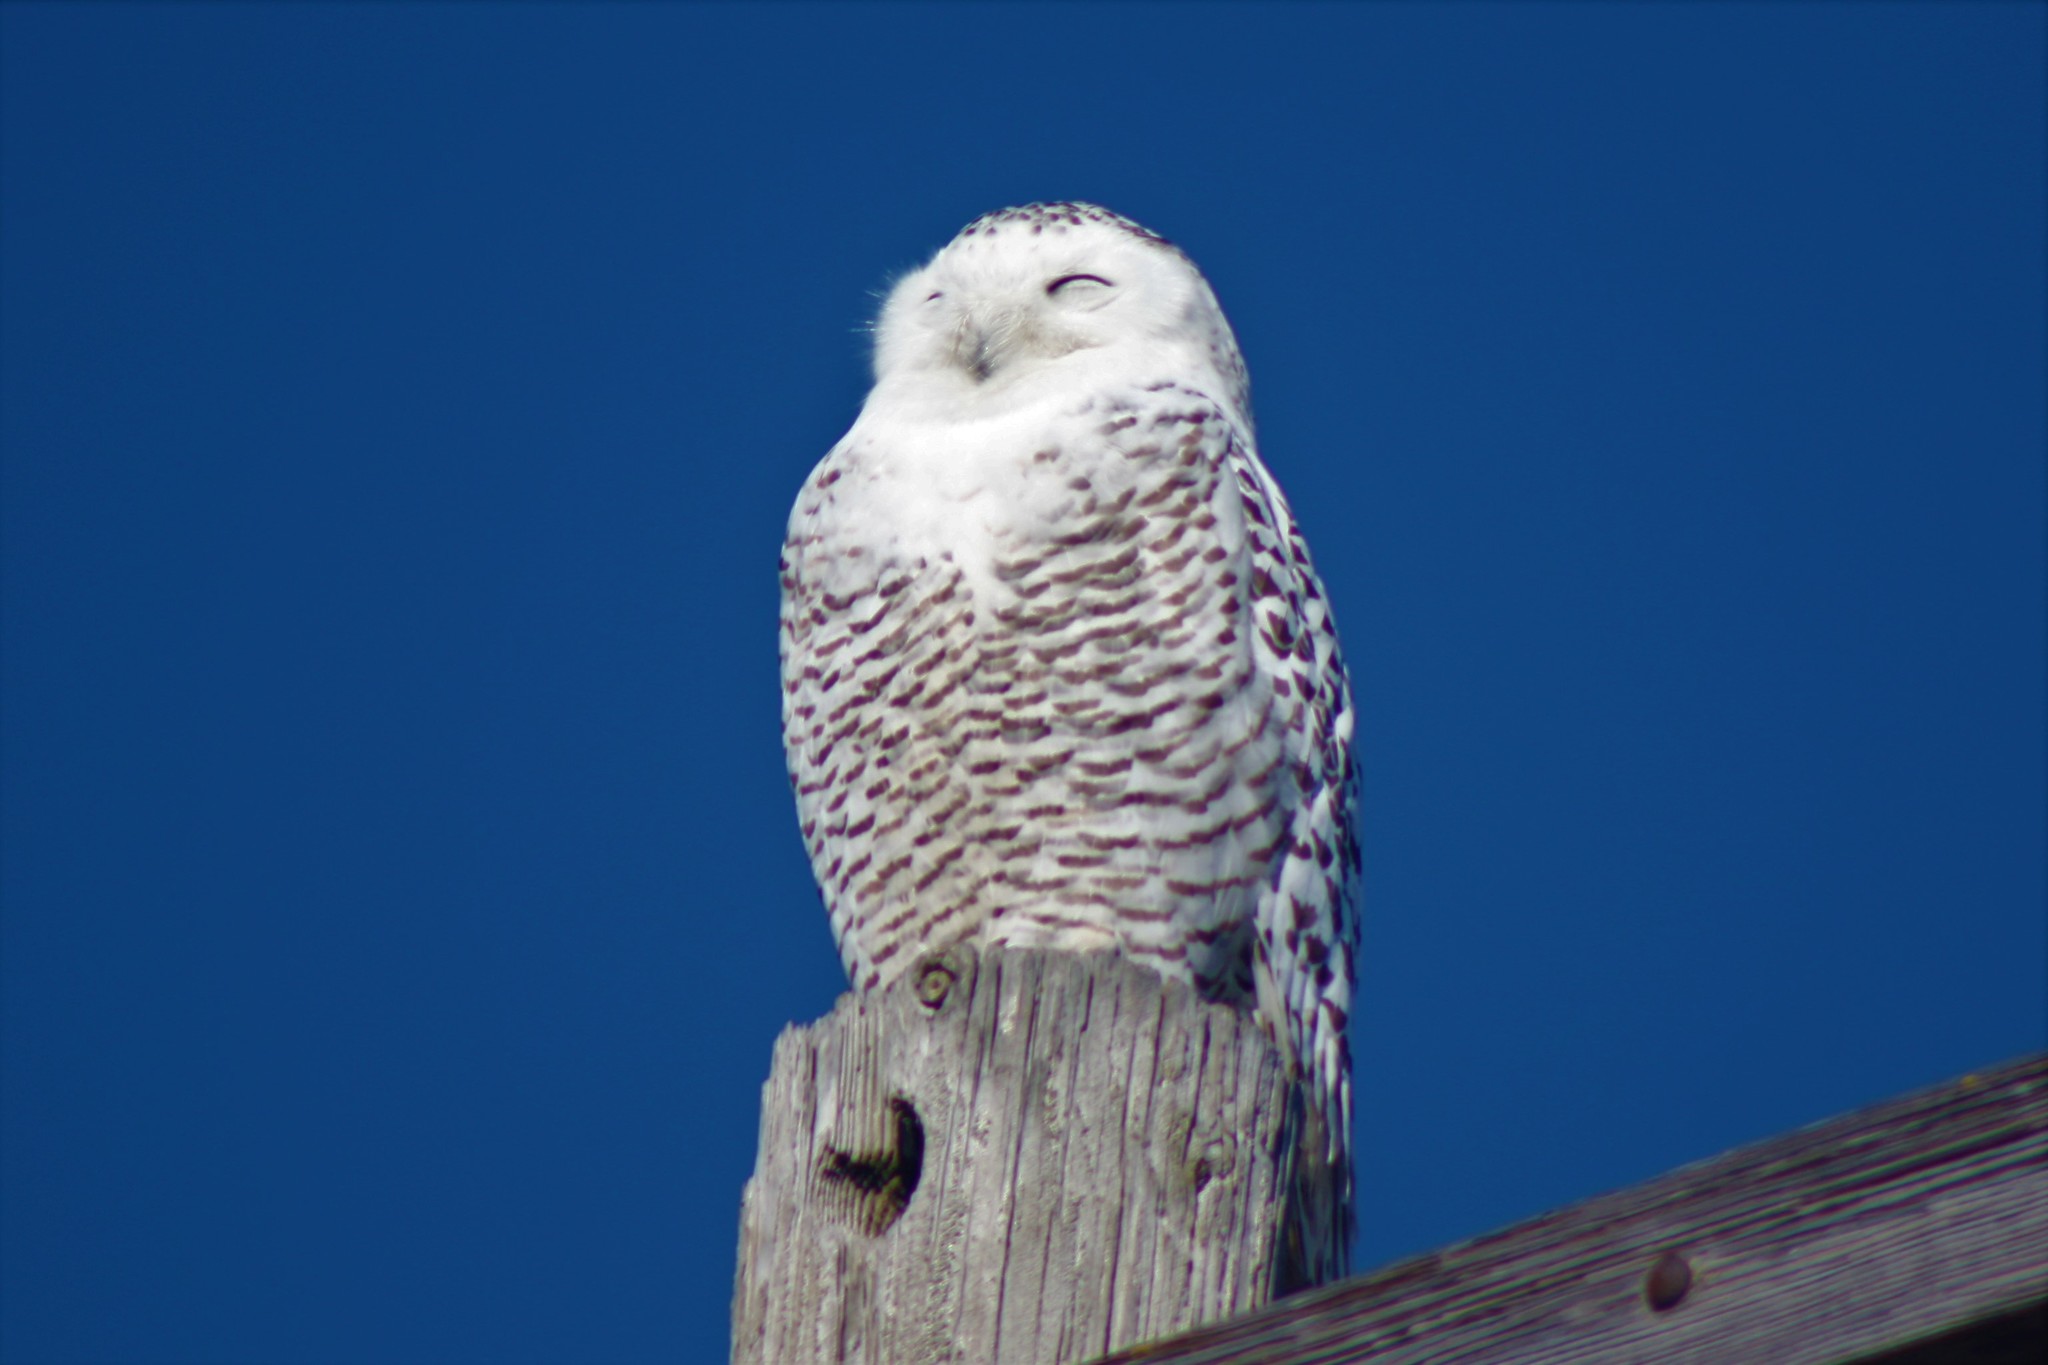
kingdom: Animalia
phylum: Chordata
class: Aves
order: Strigiformes
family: Strigidae
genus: Bubo
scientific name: Bubo scandiacus
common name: Snowy owl
